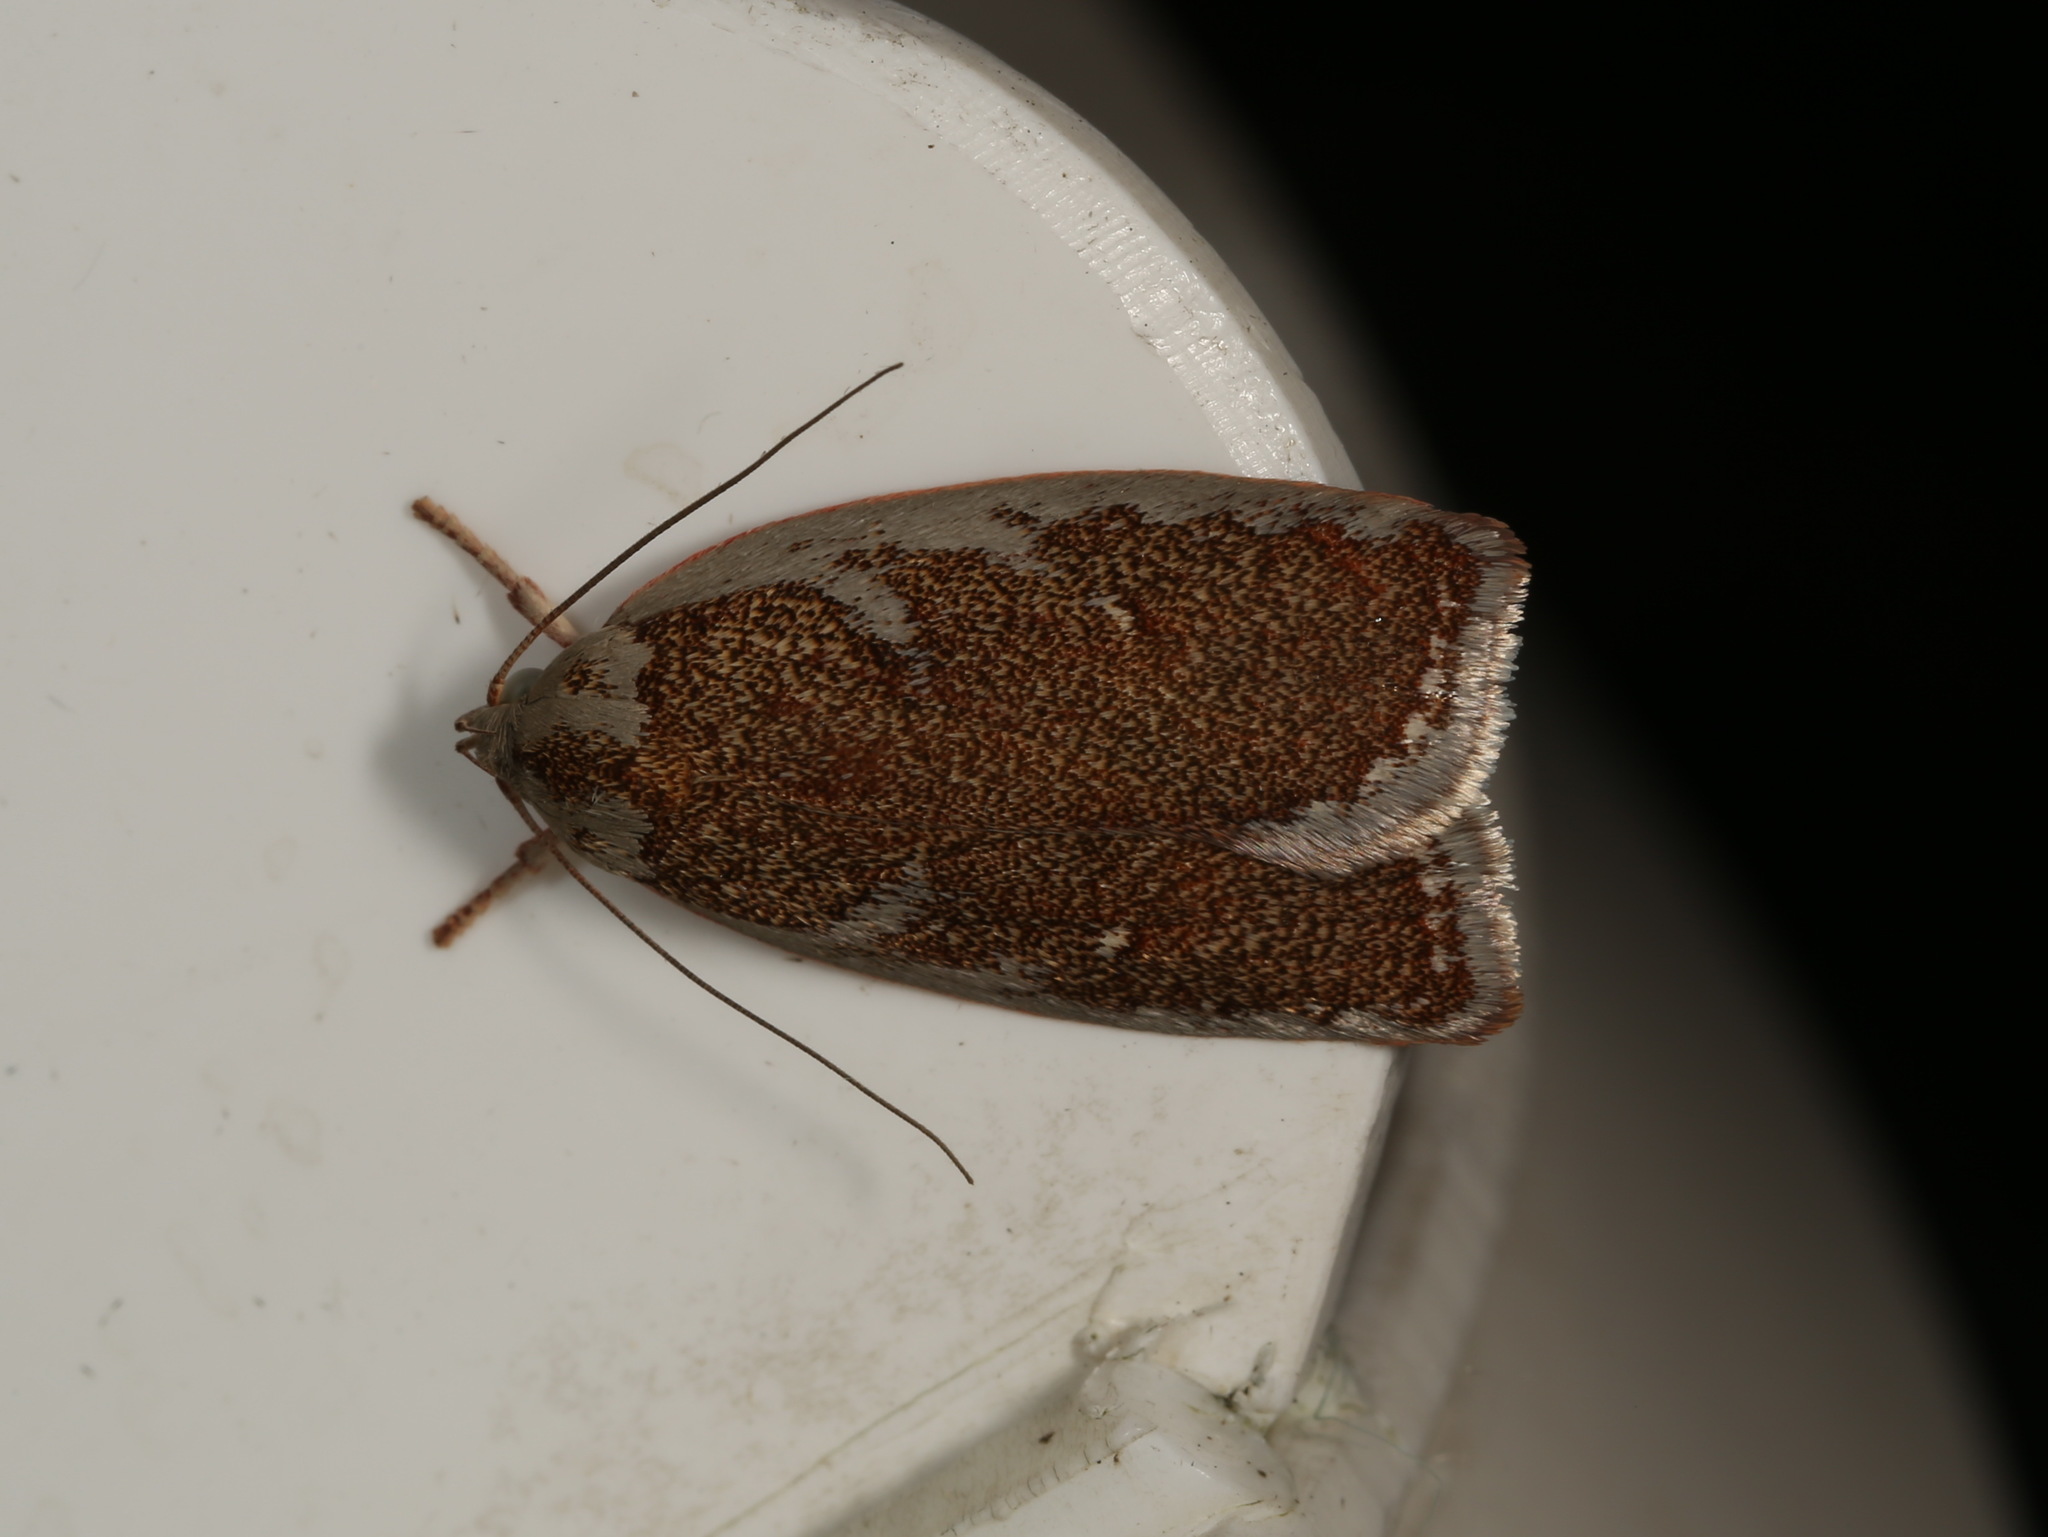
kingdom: Animalia
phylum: Arthropoda
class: Insecta
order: Lepidoptera
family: Oecophoridae
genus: Euchaetis
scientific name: Euchaetis rhizobola
